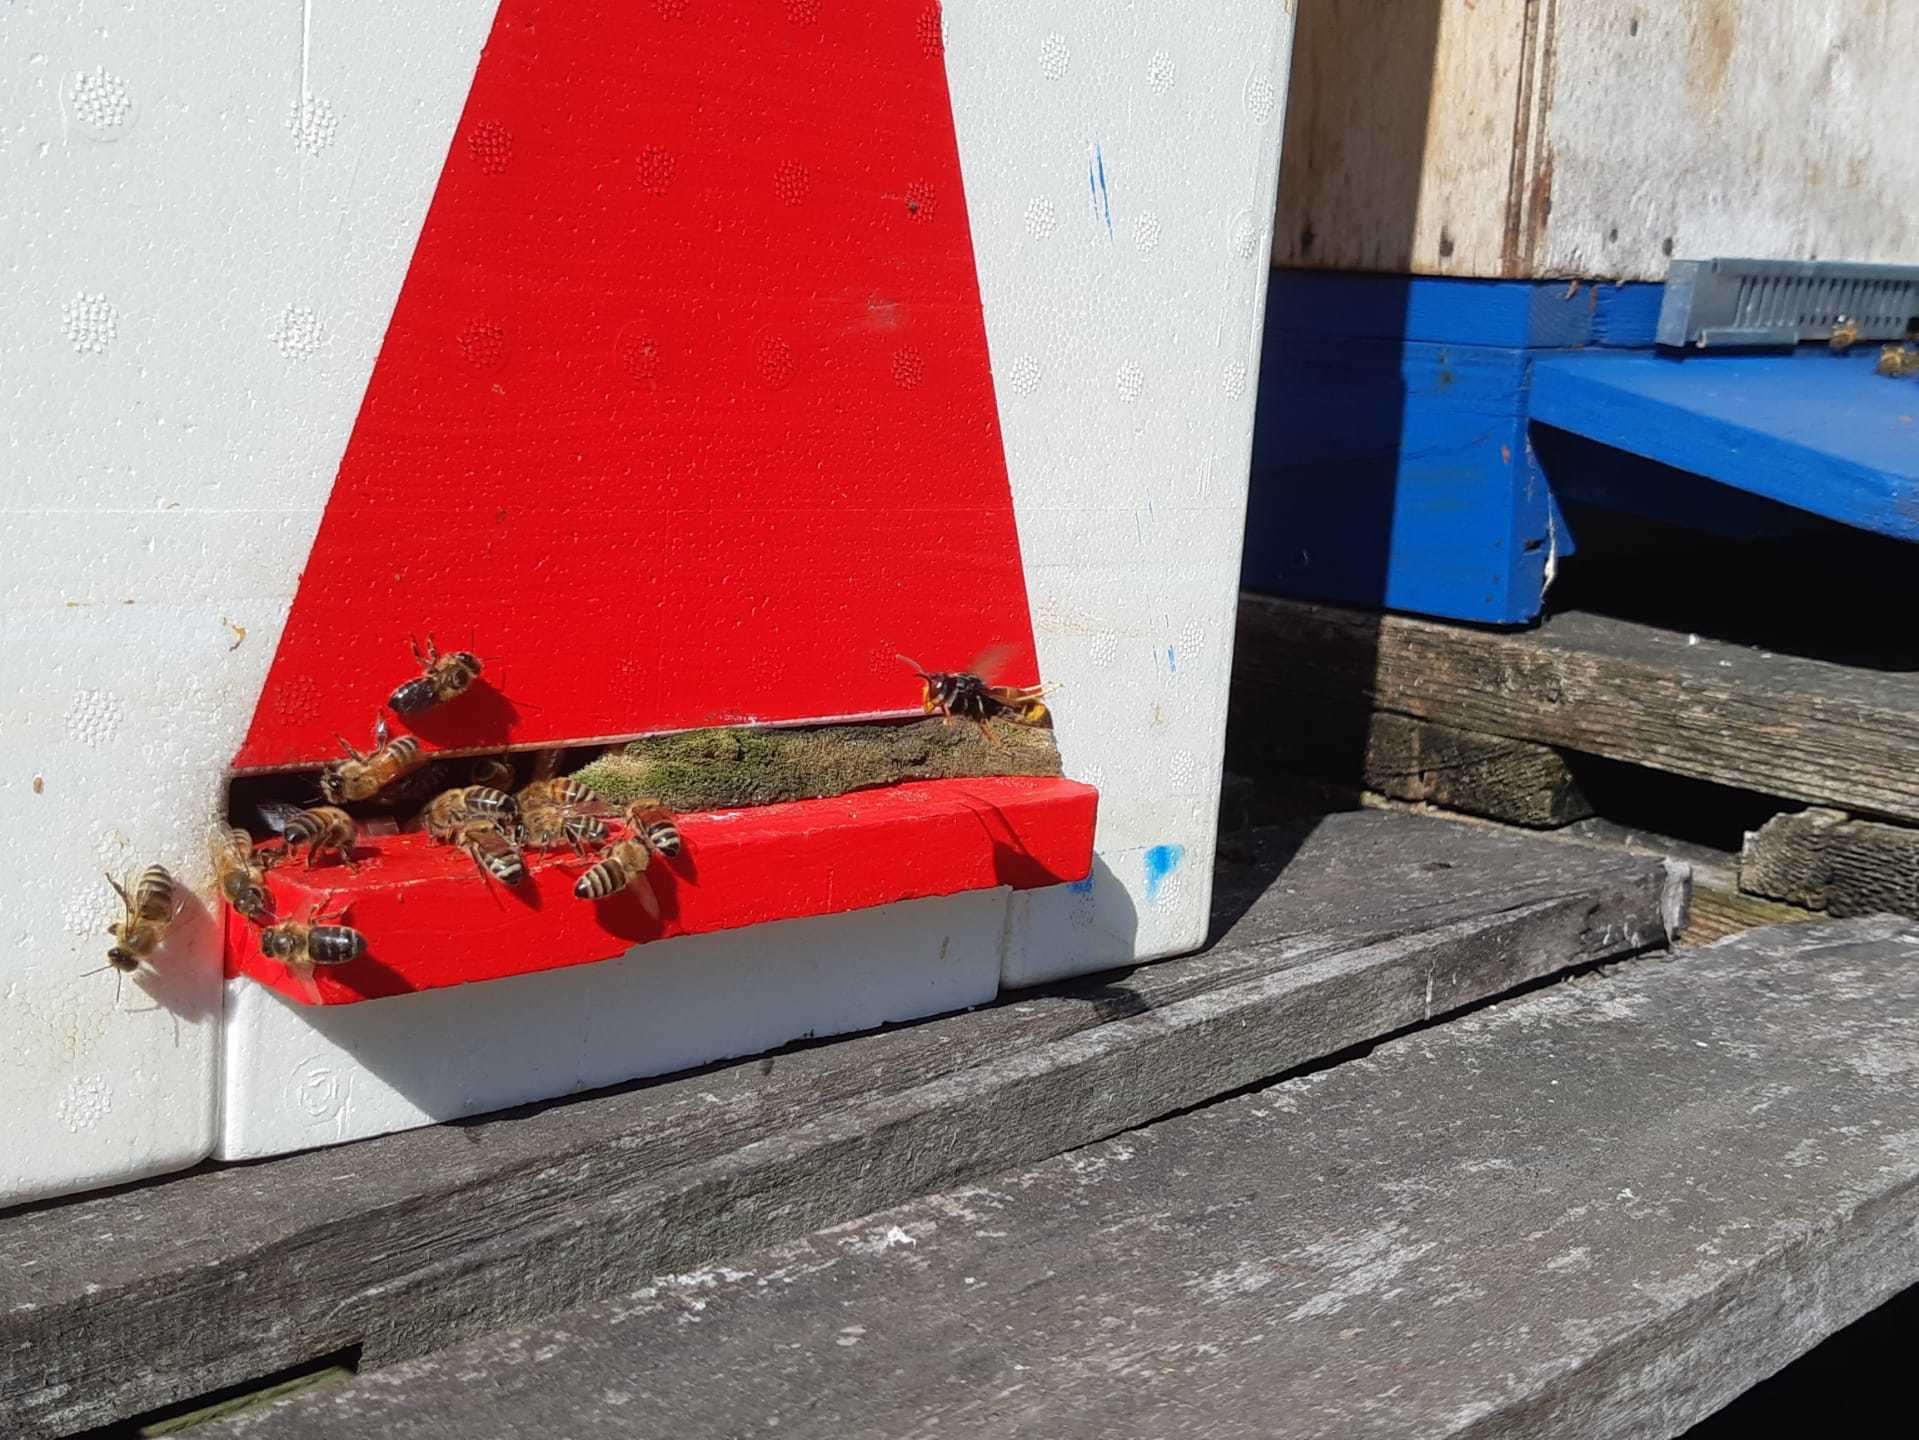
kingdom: Animalia
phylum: Arthropoda
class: Insecta
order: Hymenoptera
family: Vespidae
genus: Vespa
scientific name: Vespa velutina
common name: Asian hornet
